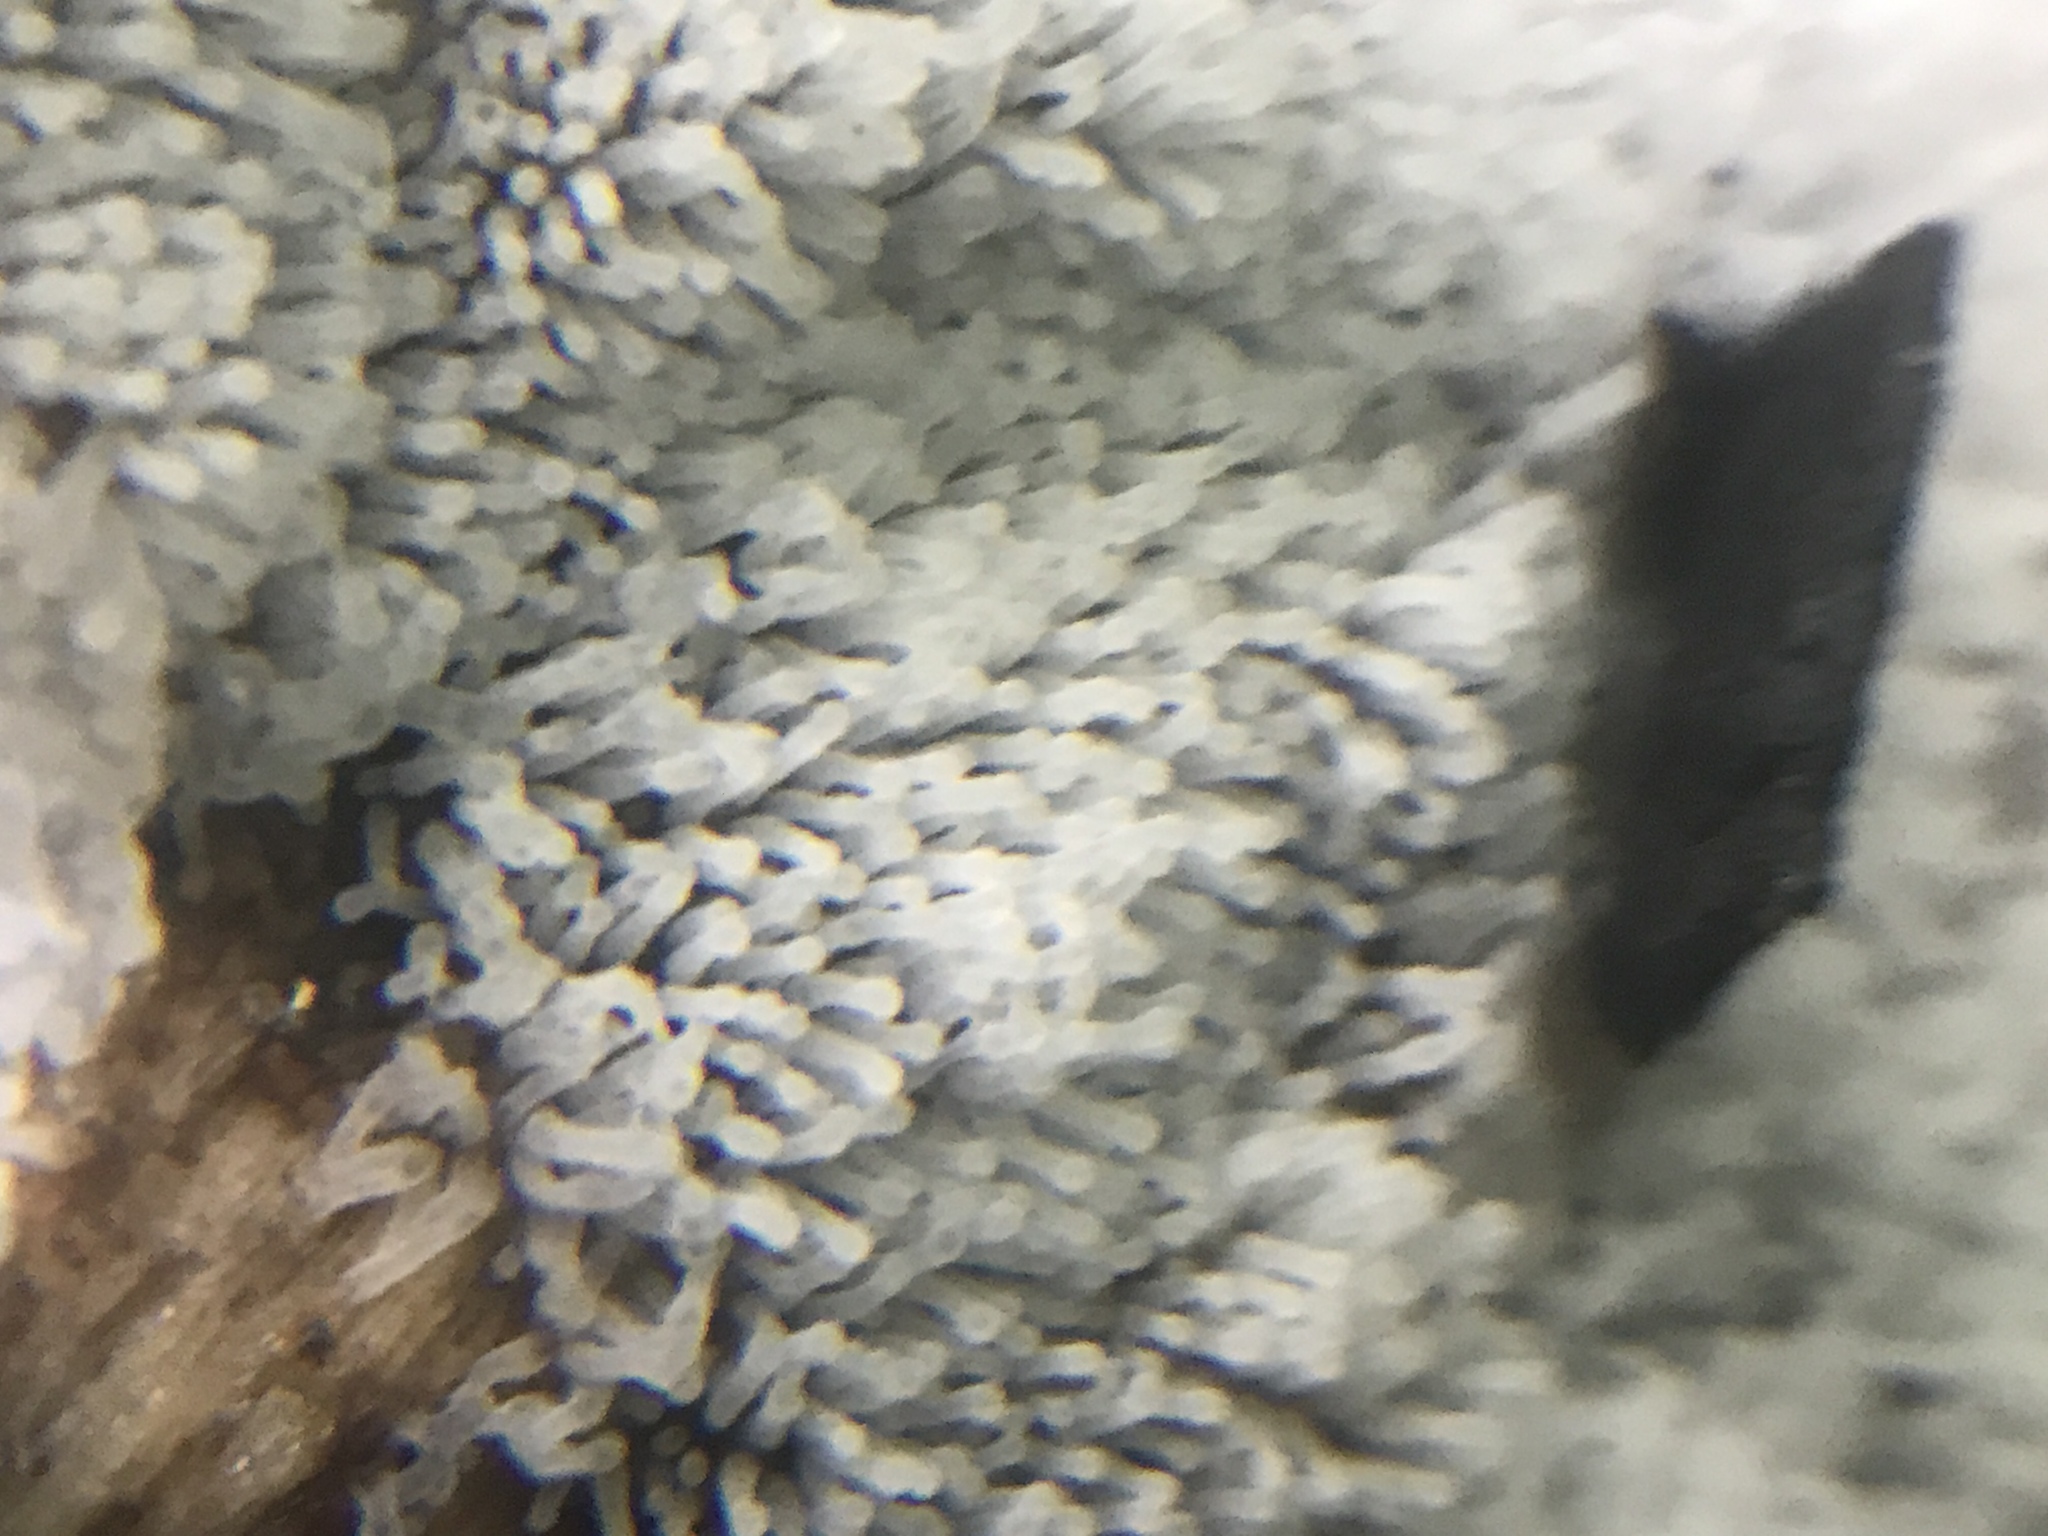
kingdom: Protozoa
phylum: Mycetozoa
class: Protosteliomycetes
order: Ceratiomyxales
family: Ceratiomyxaceae
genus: Ceratiomyxa
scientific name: Ceratiomyxa fruticulosa
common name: Honeycomb coral slime mold
